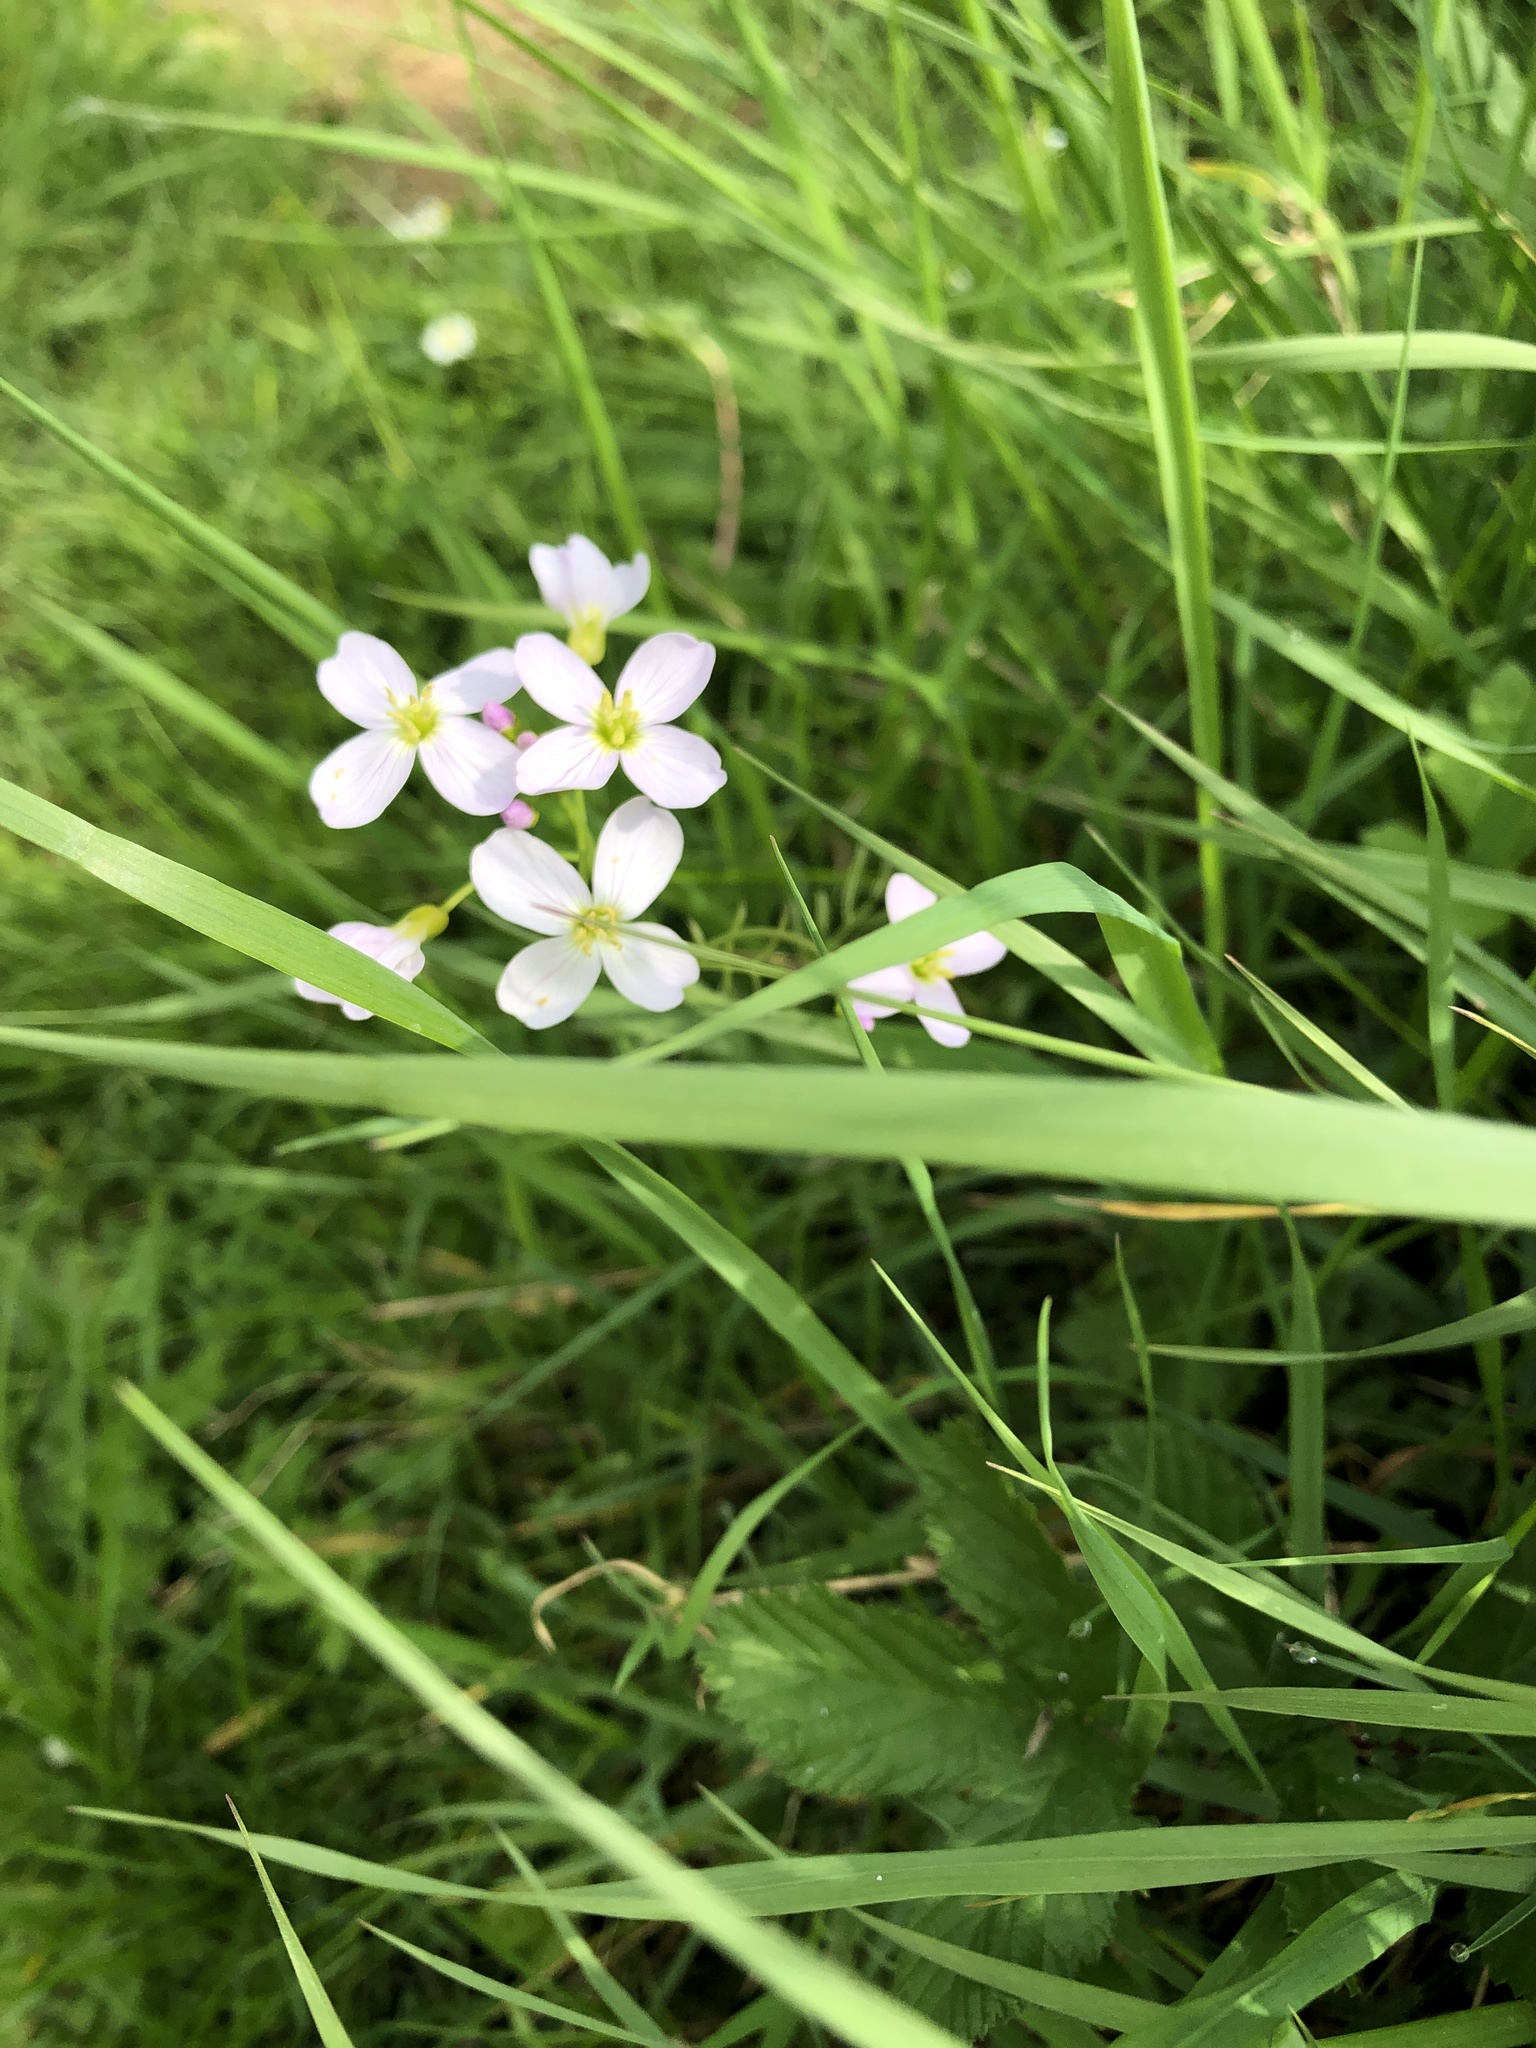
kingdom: Plantae
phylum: Tracheophyta
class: Magnoliopsida
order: Brassicales
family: Brassicaceae
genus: Cardamine
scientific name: Cardamine pratensis
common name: Cuckoo flower
